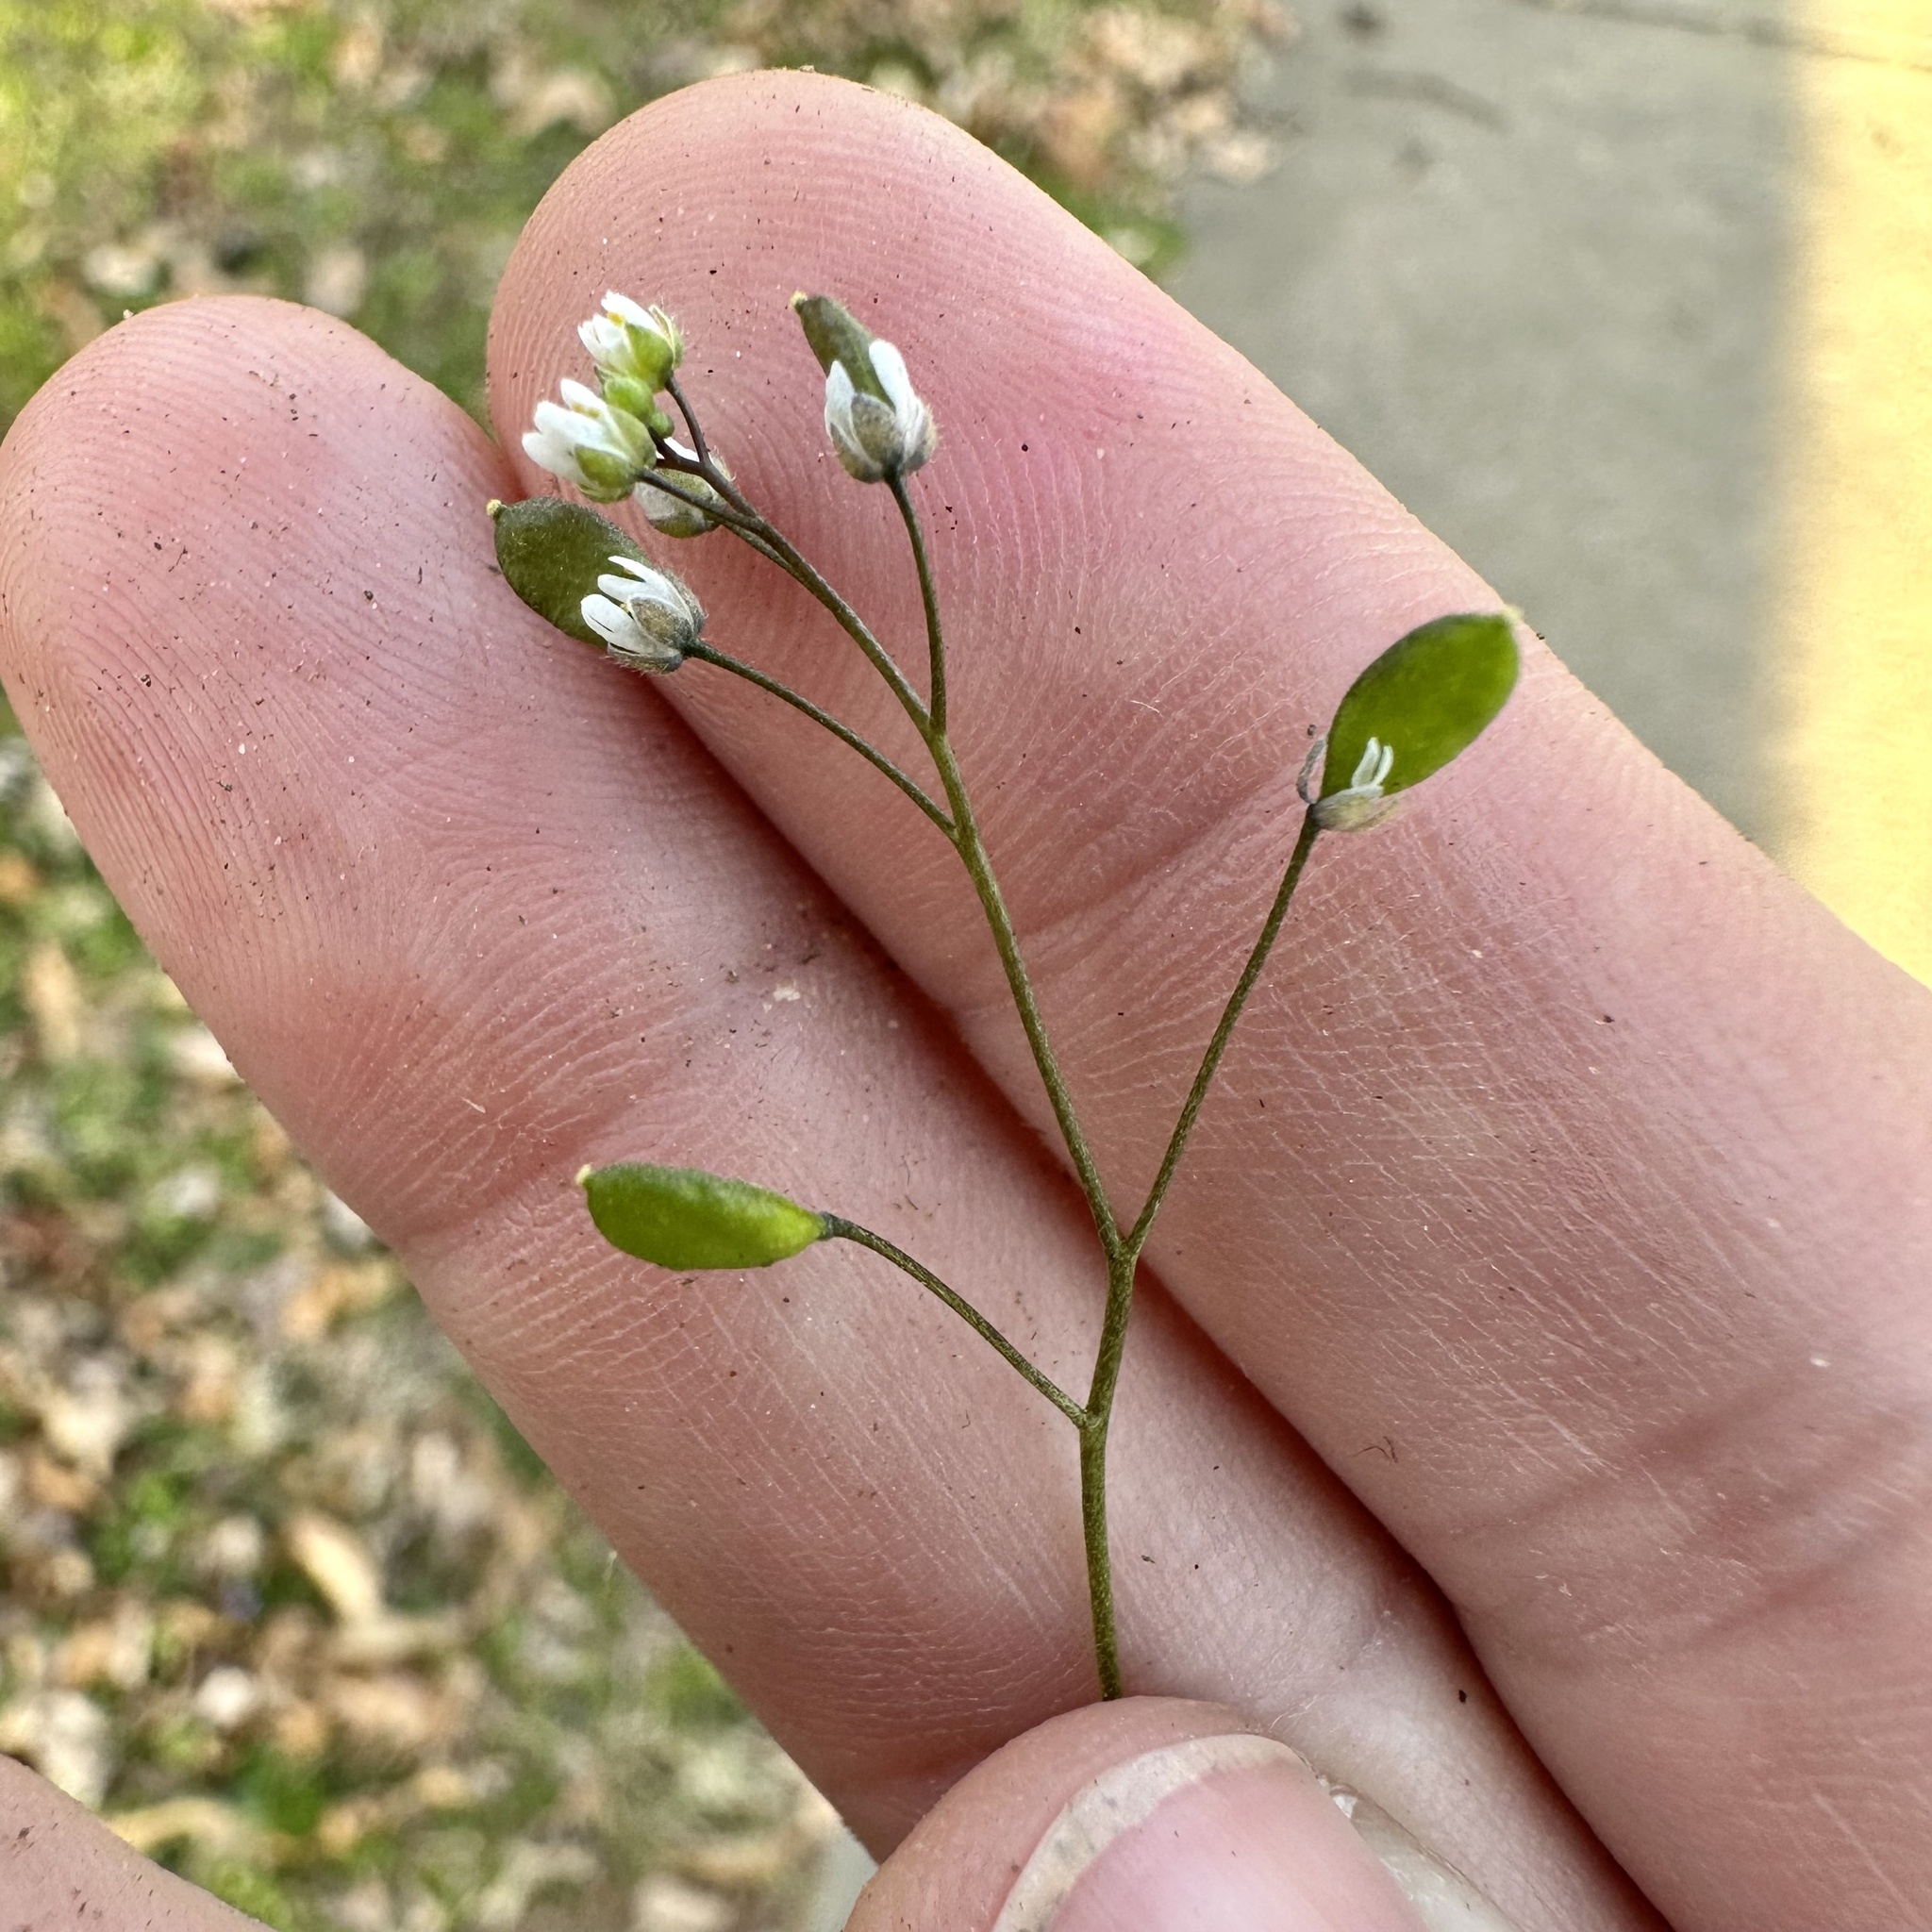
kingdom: Plantae
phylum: Tracheophyta
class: Magnoliopsida
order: Brassicales
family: Brassicaceae
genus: Draba
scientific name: Draba verna
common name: Spring draba
